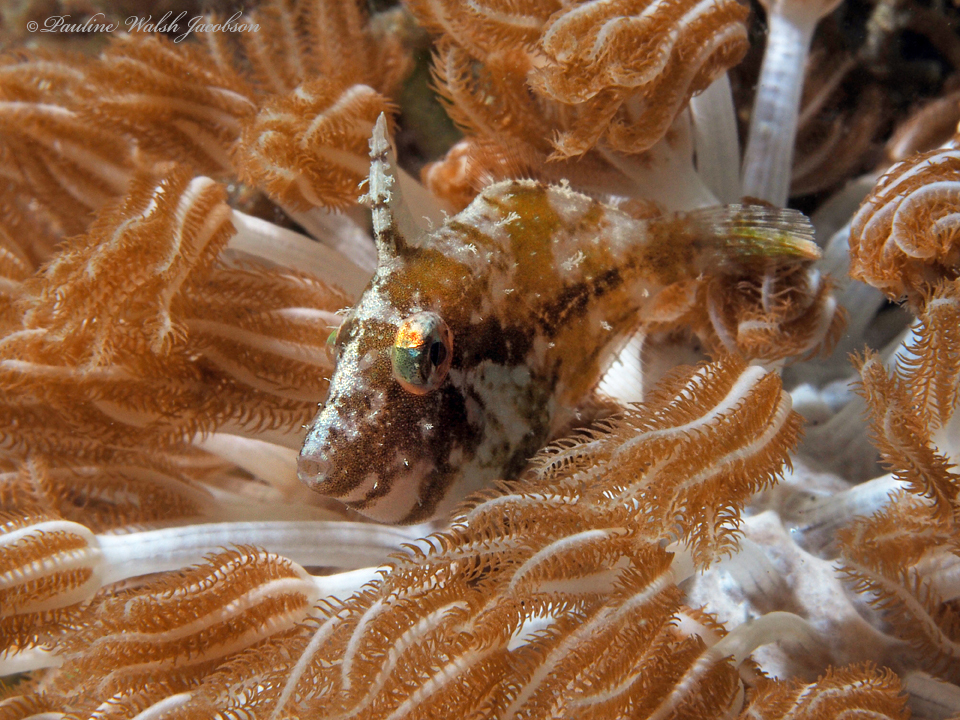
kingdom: Animalia
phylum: Chordata
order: Tetraodontiformes
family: Monacanthidae
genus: Paramonacanthus
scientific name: Paramonacanthus choirocephalus
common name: Pig faced leather jacket
